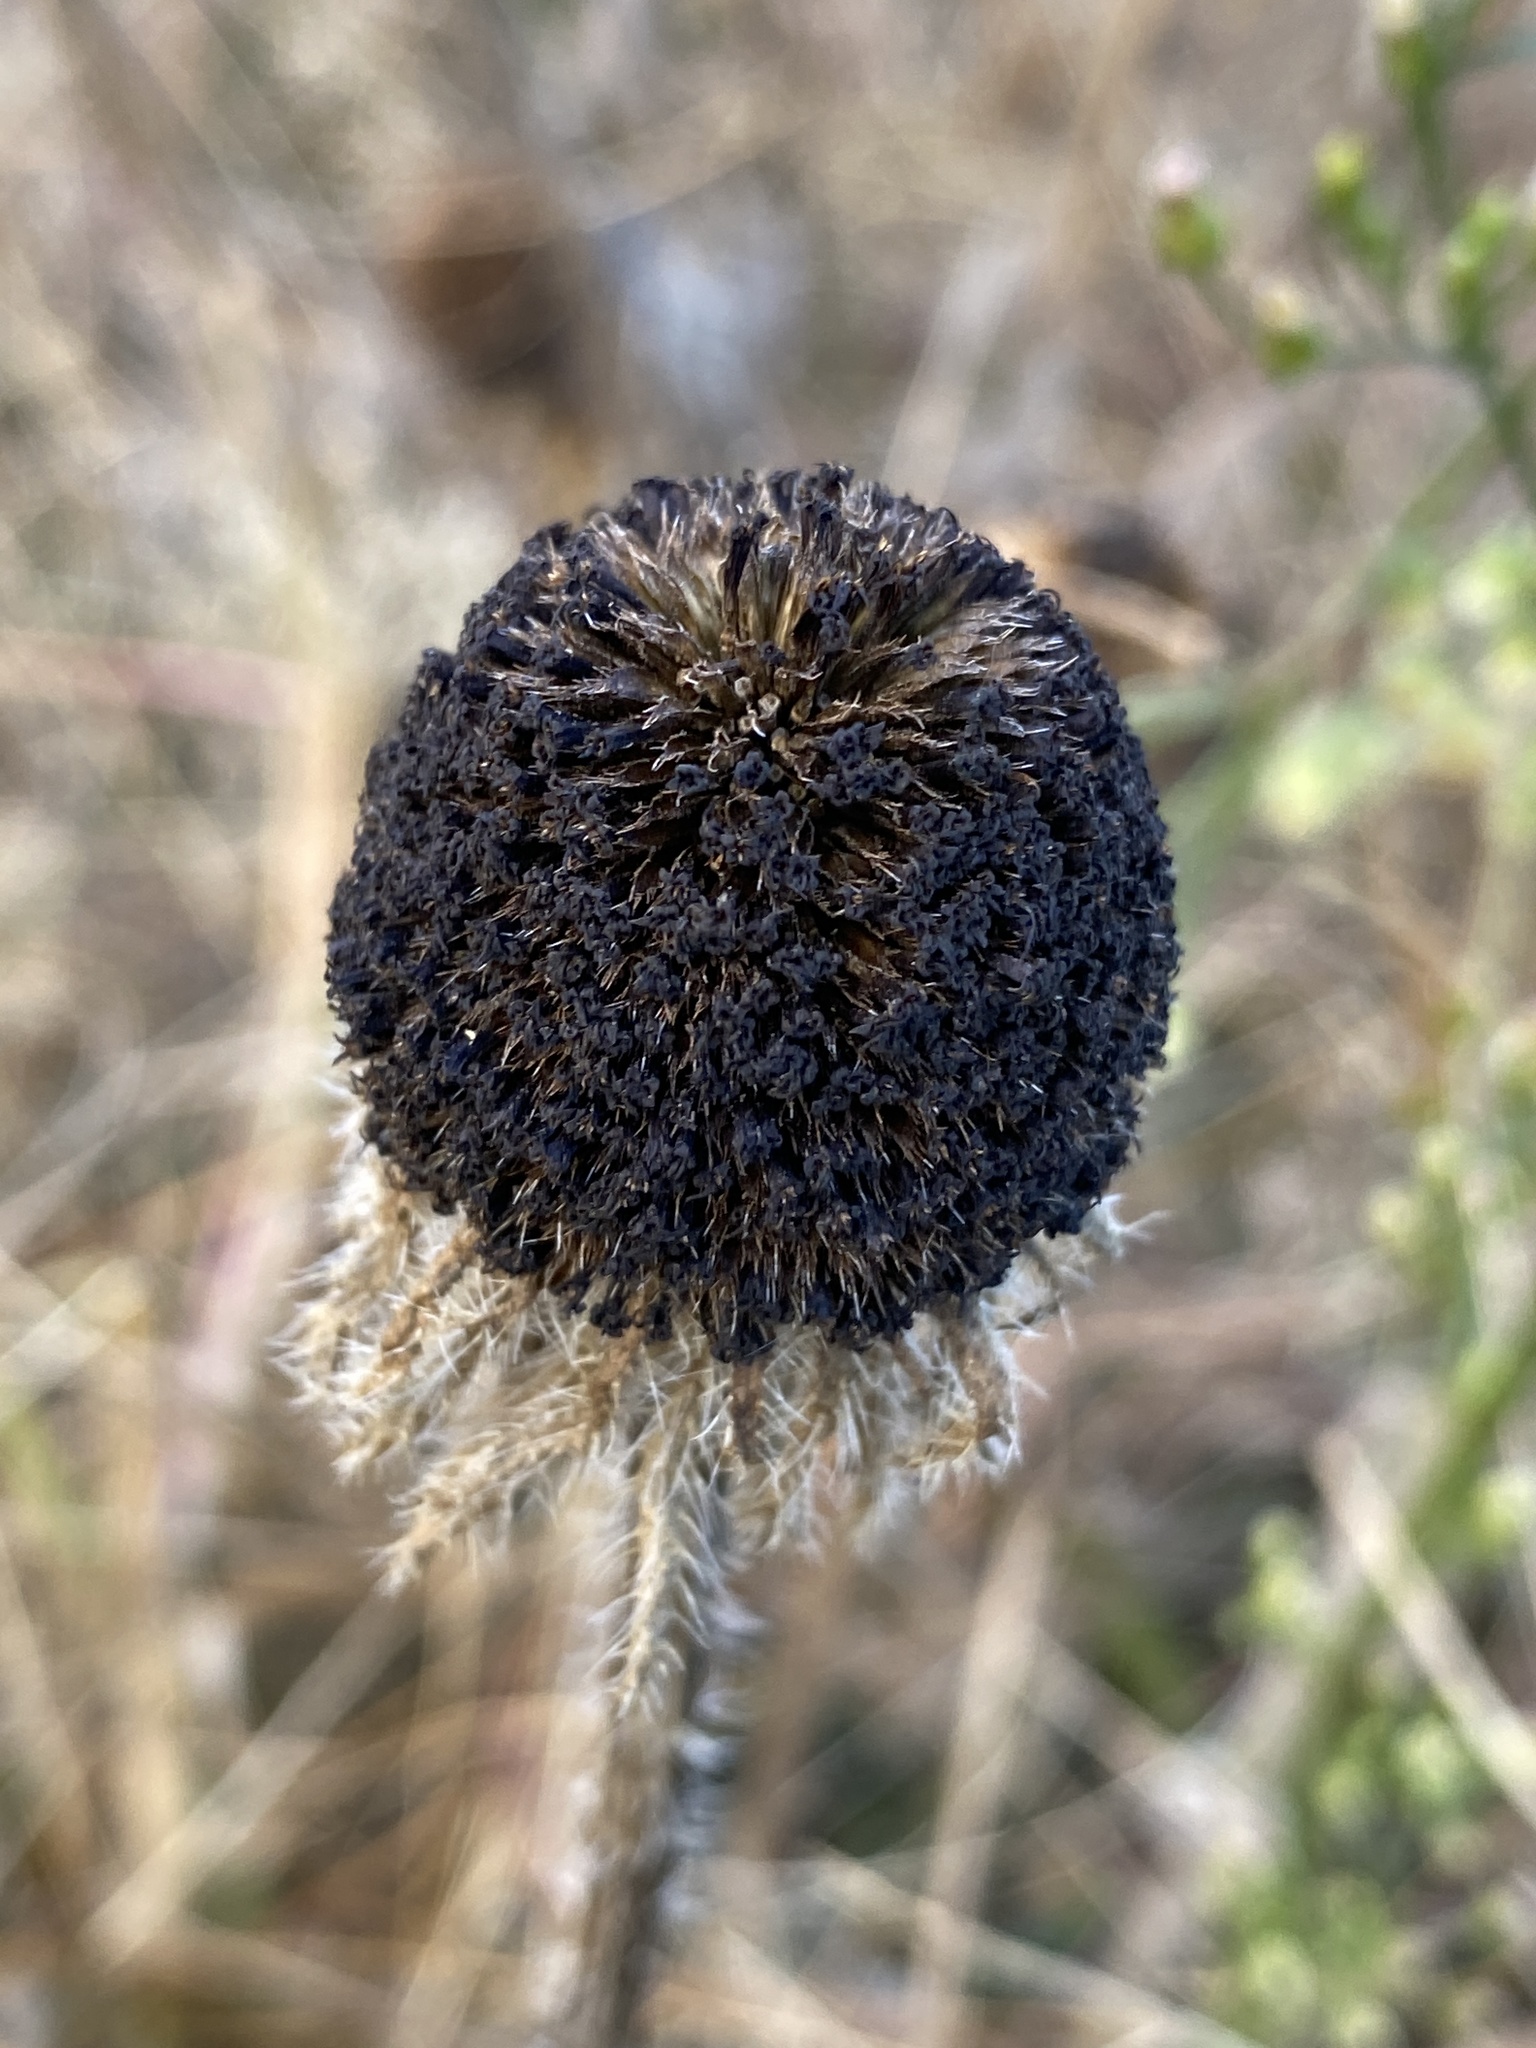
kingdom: Plantae
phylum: Tracheophyta
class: Magnoliopsida
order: Asterales
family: Asteraceae
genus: Rudbeckia
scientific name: Rudbeckia hirta
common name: Black-eyed-susan
